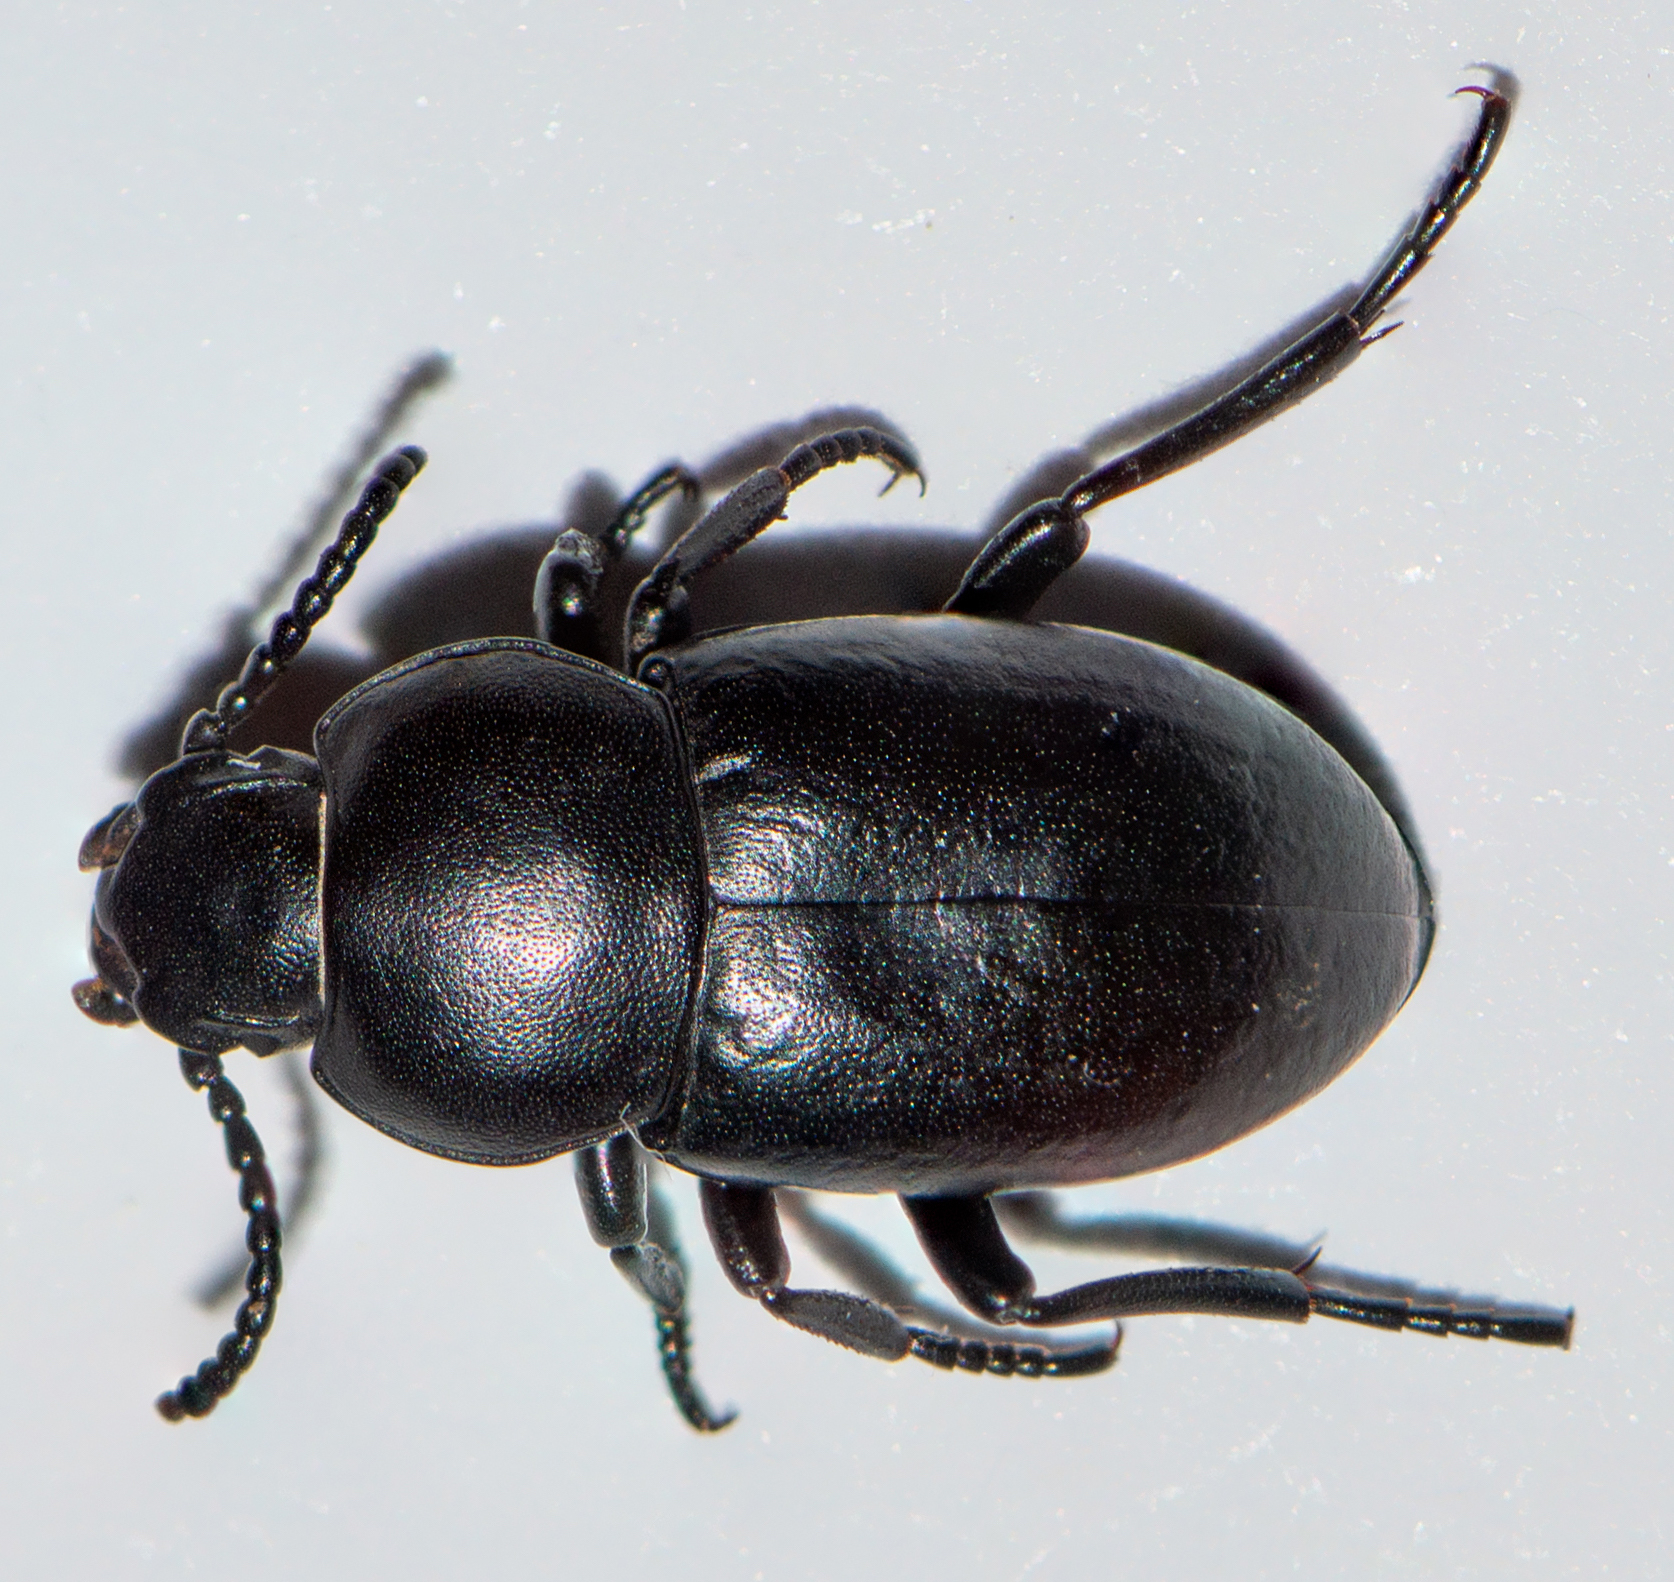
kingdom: Animalia
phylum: Arthropoda
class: Insecta
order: Coleoptera
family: Tenebrionidae
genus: Dailognatha
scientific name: Dailognatha vicina
